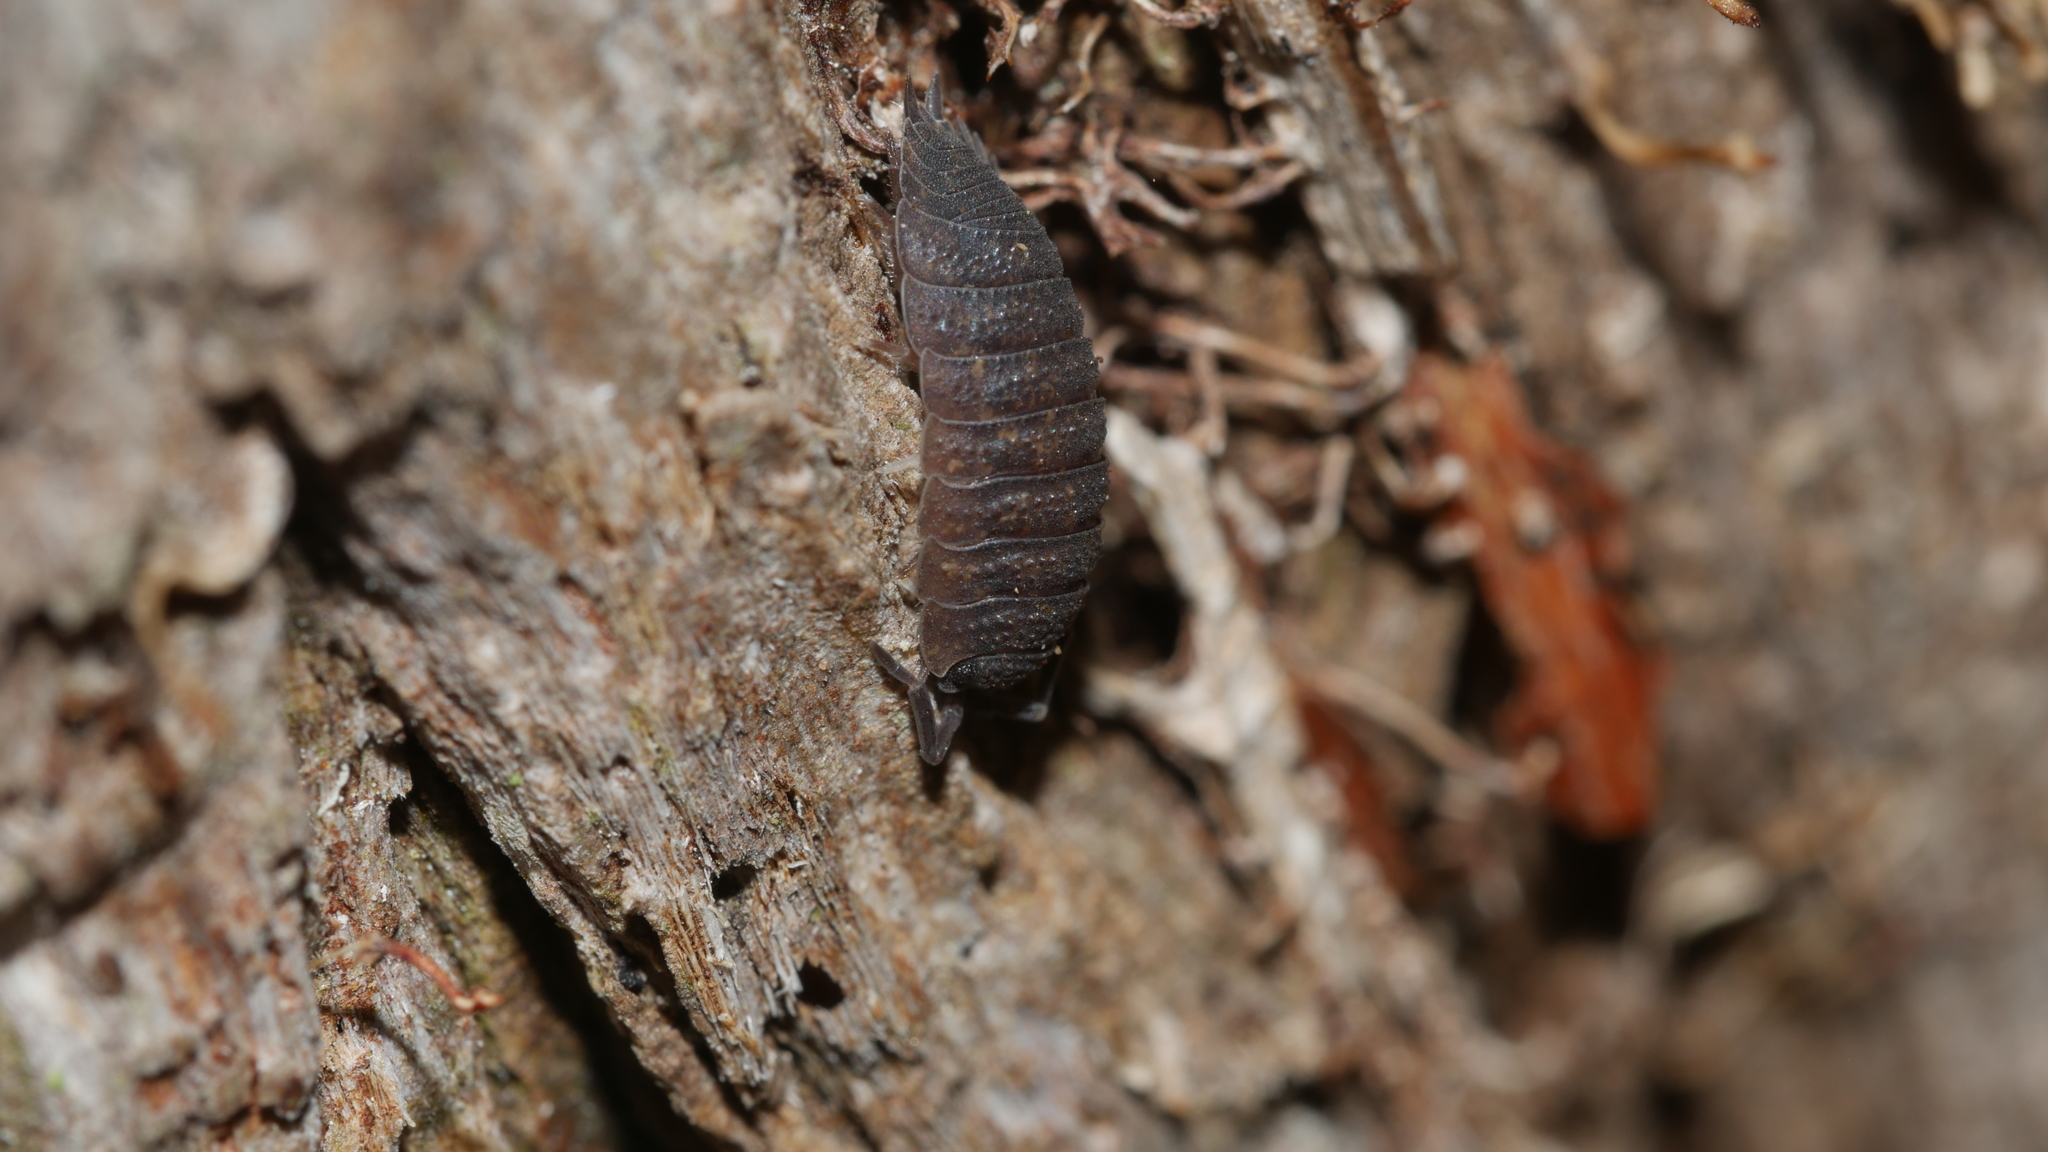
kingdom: Animalia
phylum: Arthropoda
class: Malacostraca
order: Isopoda
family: Porcellionidae
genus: Porcellio
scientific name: Porcellio scaber
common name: Common rough woodlouse
